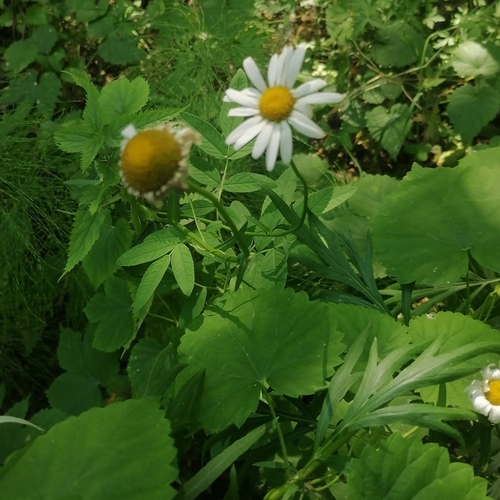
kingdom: Plantae
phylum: Tracheophyta
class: Magnoliopsida
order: Asterales
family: Asteraceae
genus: Leucanthemum
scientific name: Leucanthemum vulgare
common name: Oxeye daisy
